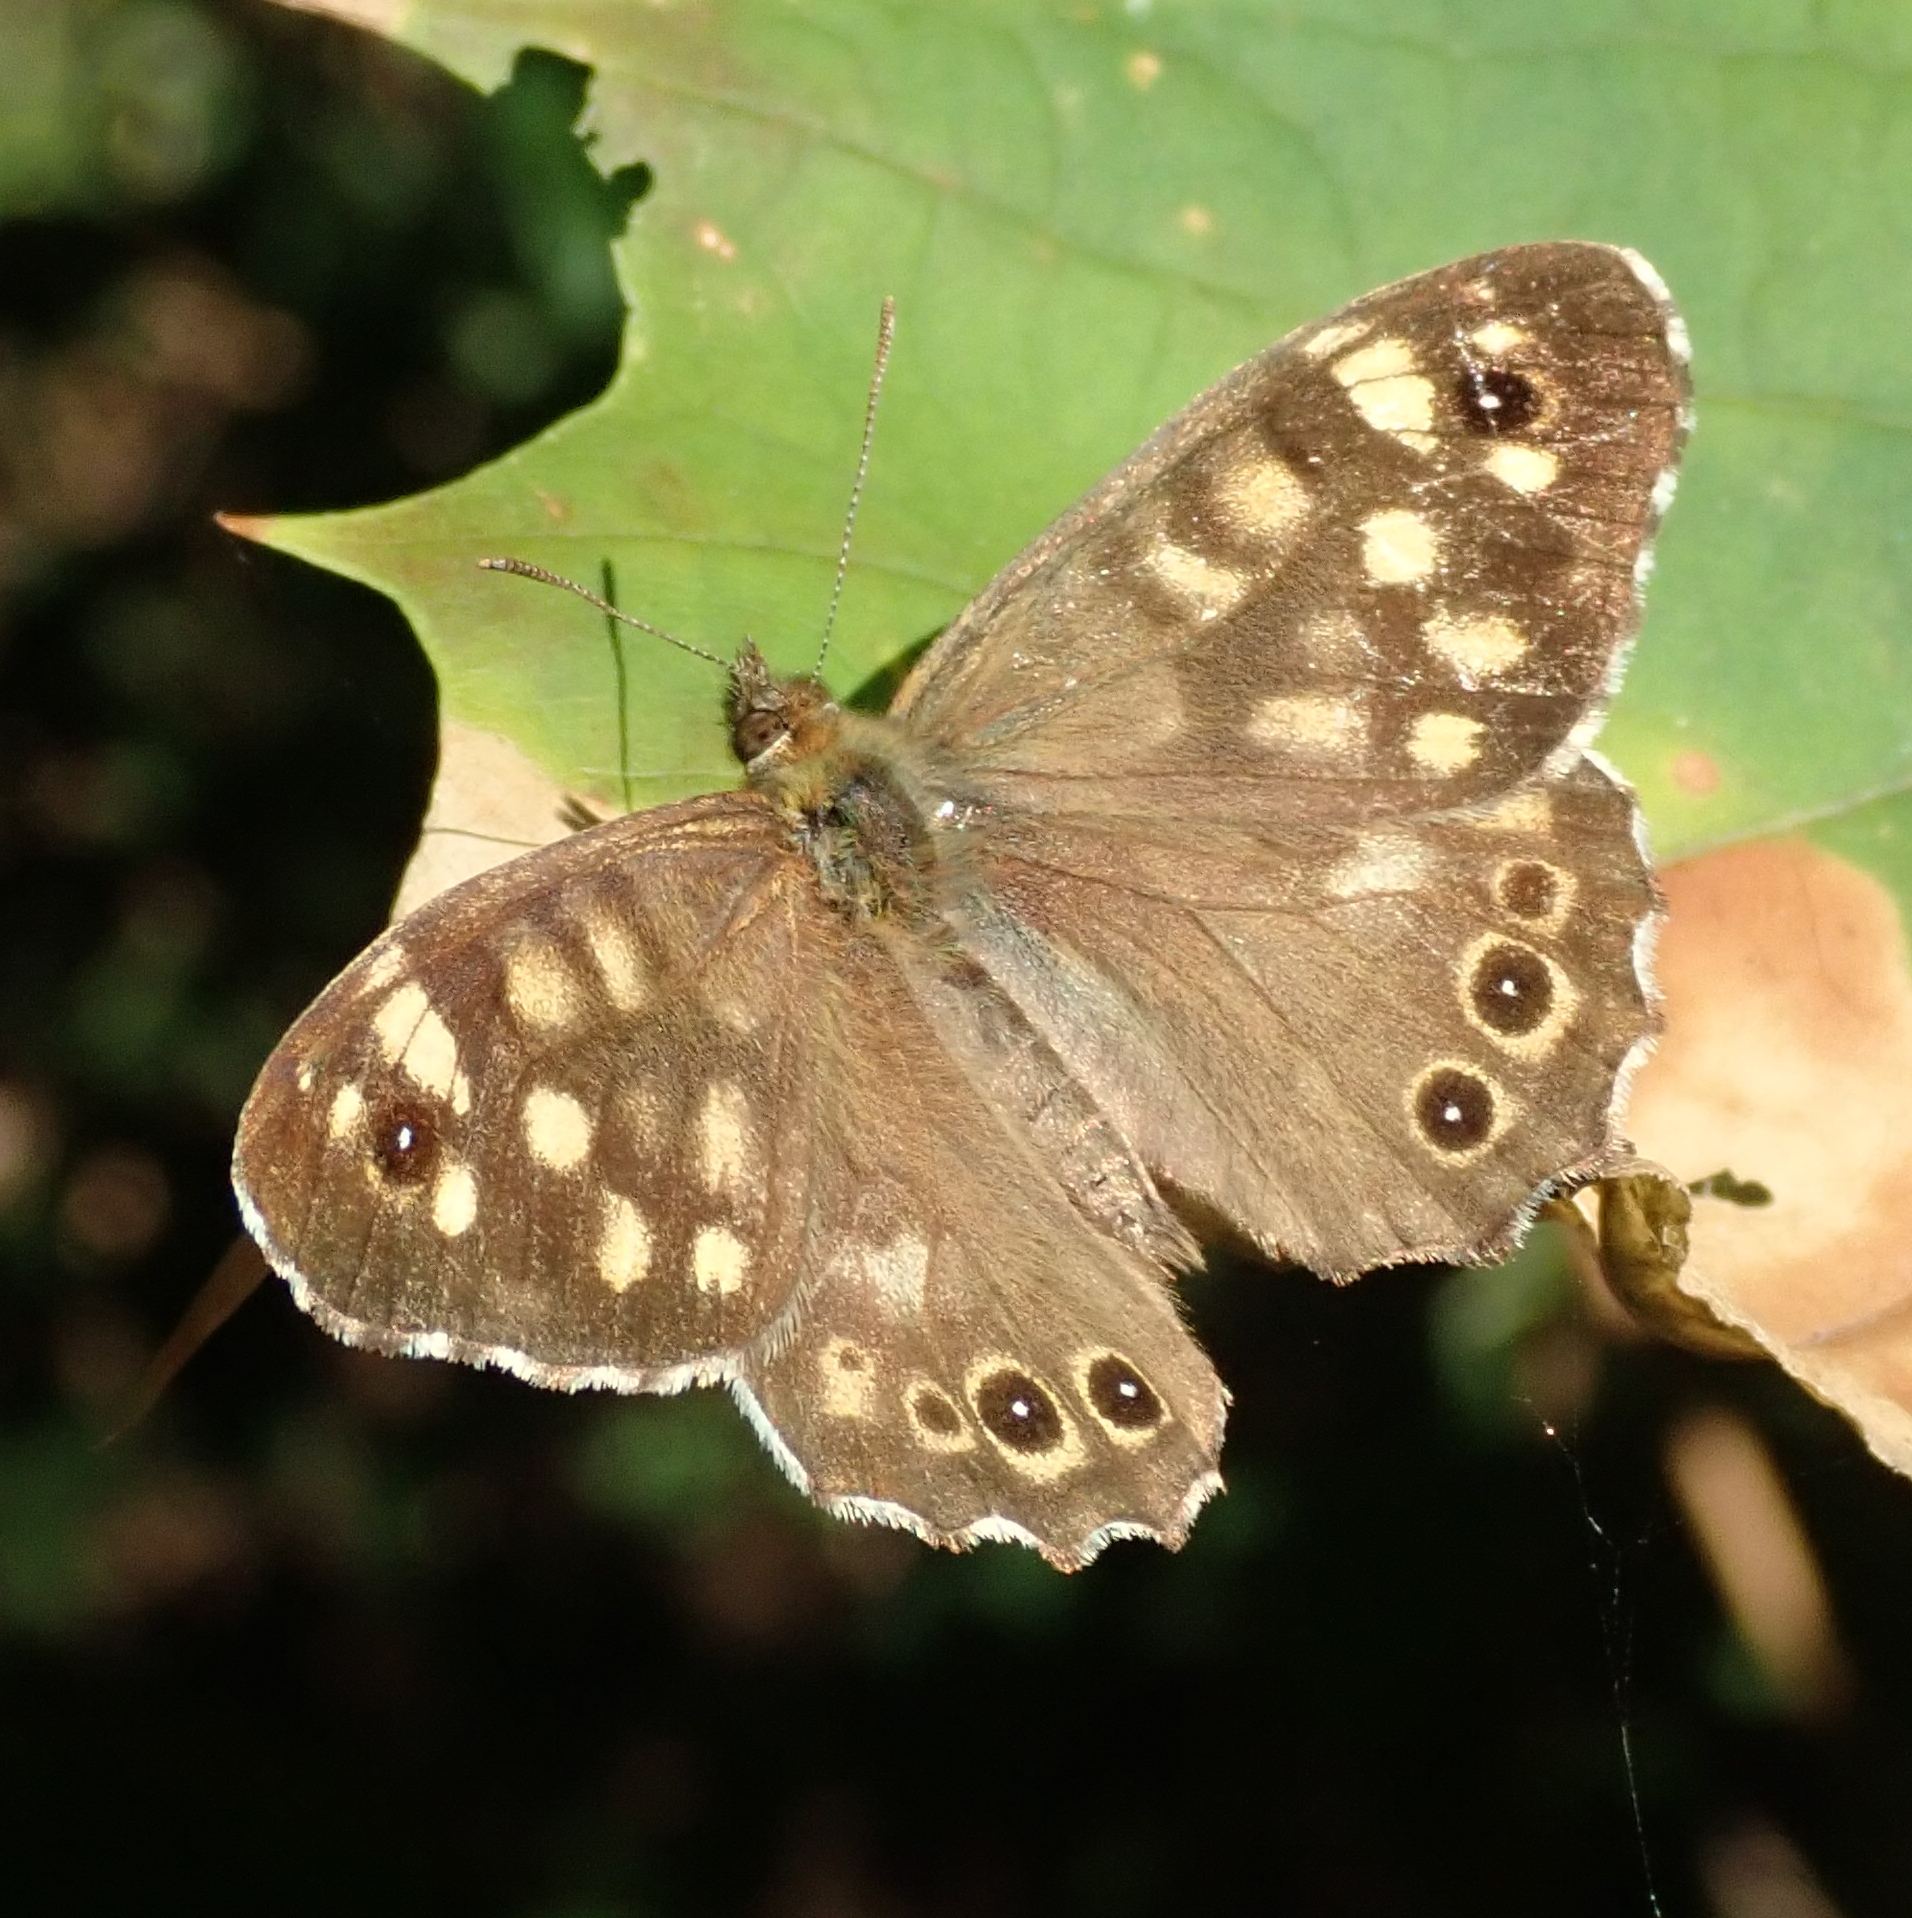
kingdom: Animalia
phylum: Arthropoda
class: Insecta
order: Lepidoptera
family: Nymphalidae
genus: Pararge
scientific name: Pararge aegeria
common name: Speckled wood
